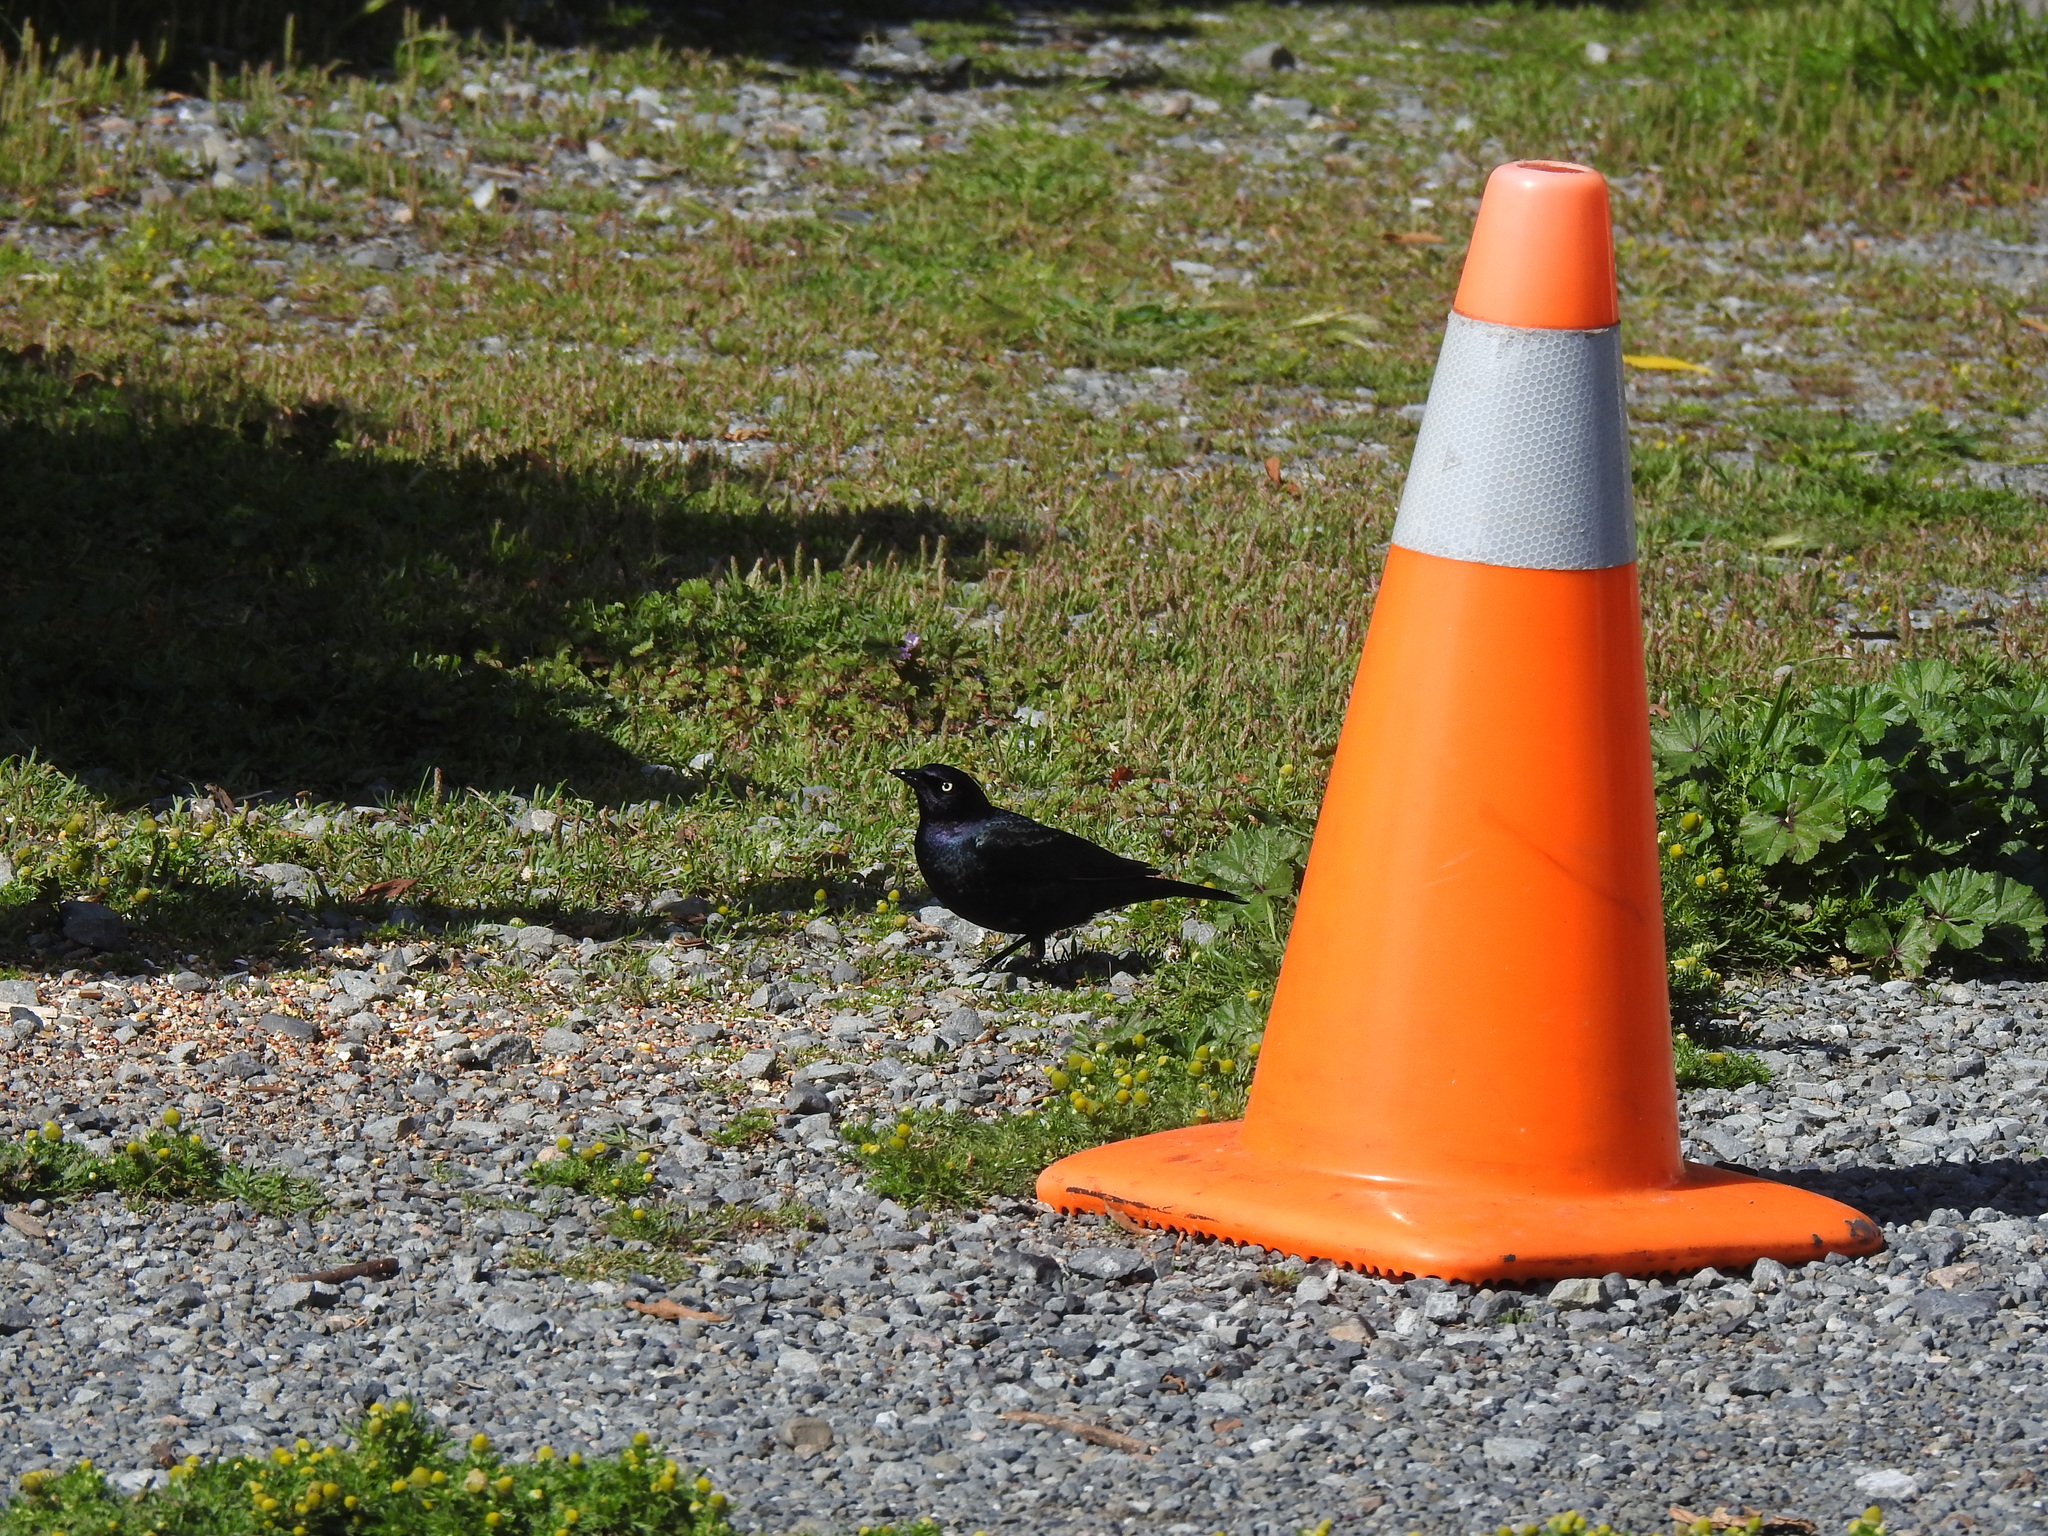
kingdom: Animalia
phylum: Chordata
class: Aves
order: Passeriformes
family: Icteridae
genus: Euphagus
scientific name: Euphagus cyanocephalus
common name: Brewer's blackbird
